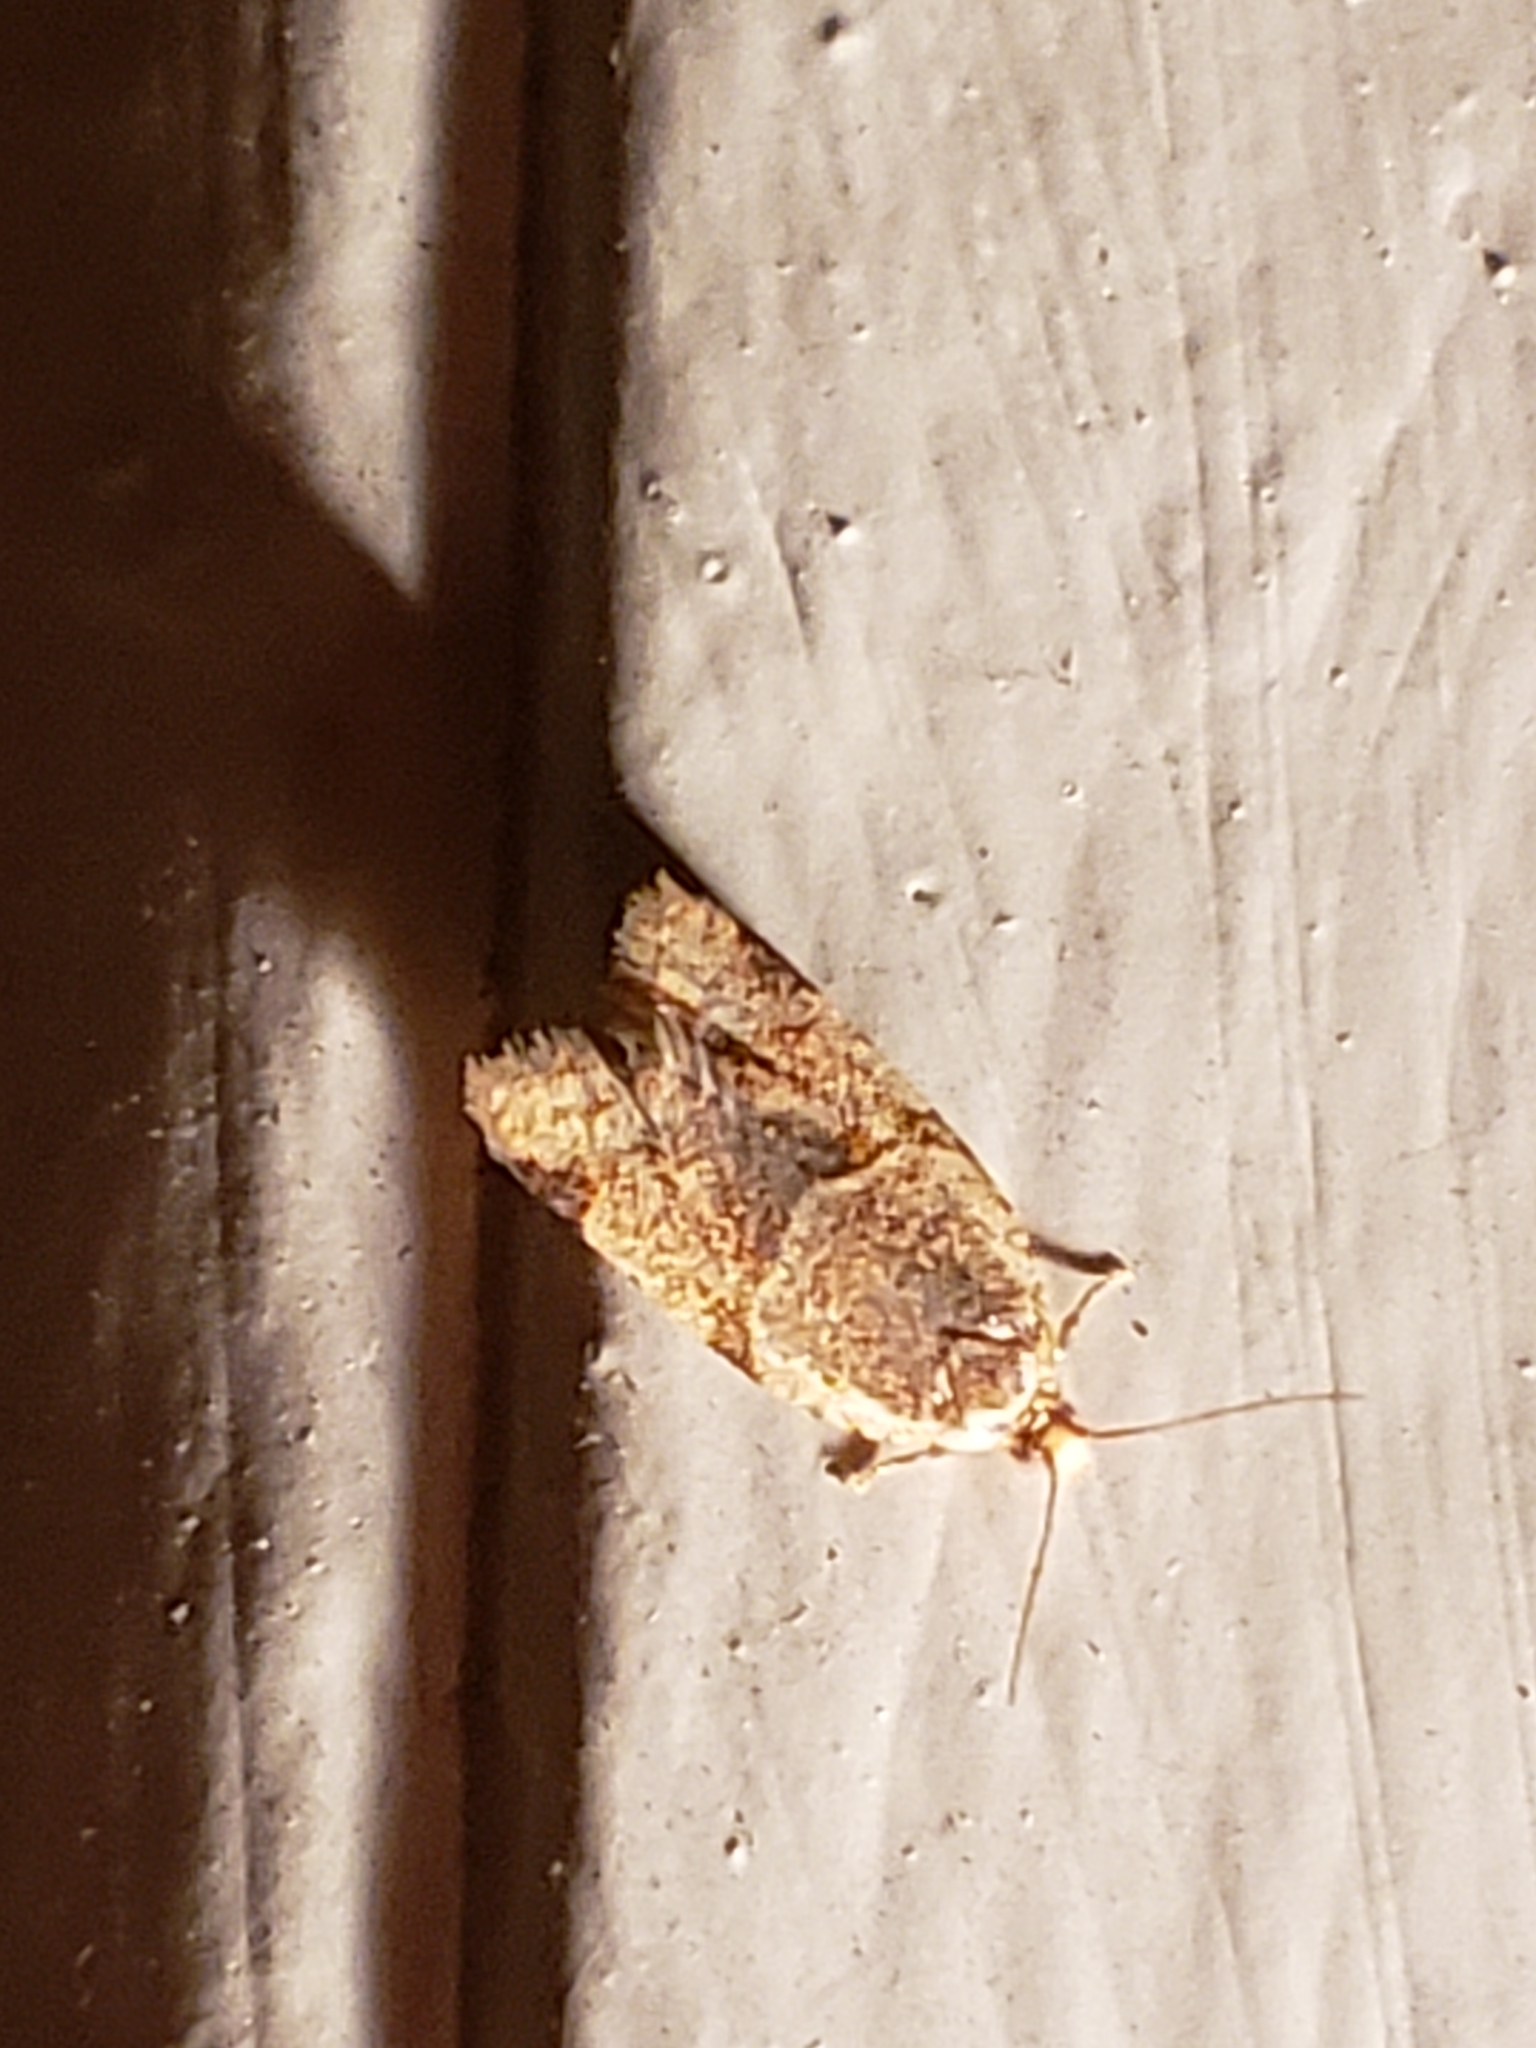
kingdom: Animalia
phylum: Arthropoda
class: Insecta
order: Lepidoptera
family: Tortricidae
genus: Clepsis
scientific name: Clepsis peritana
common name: Garden tortrix
